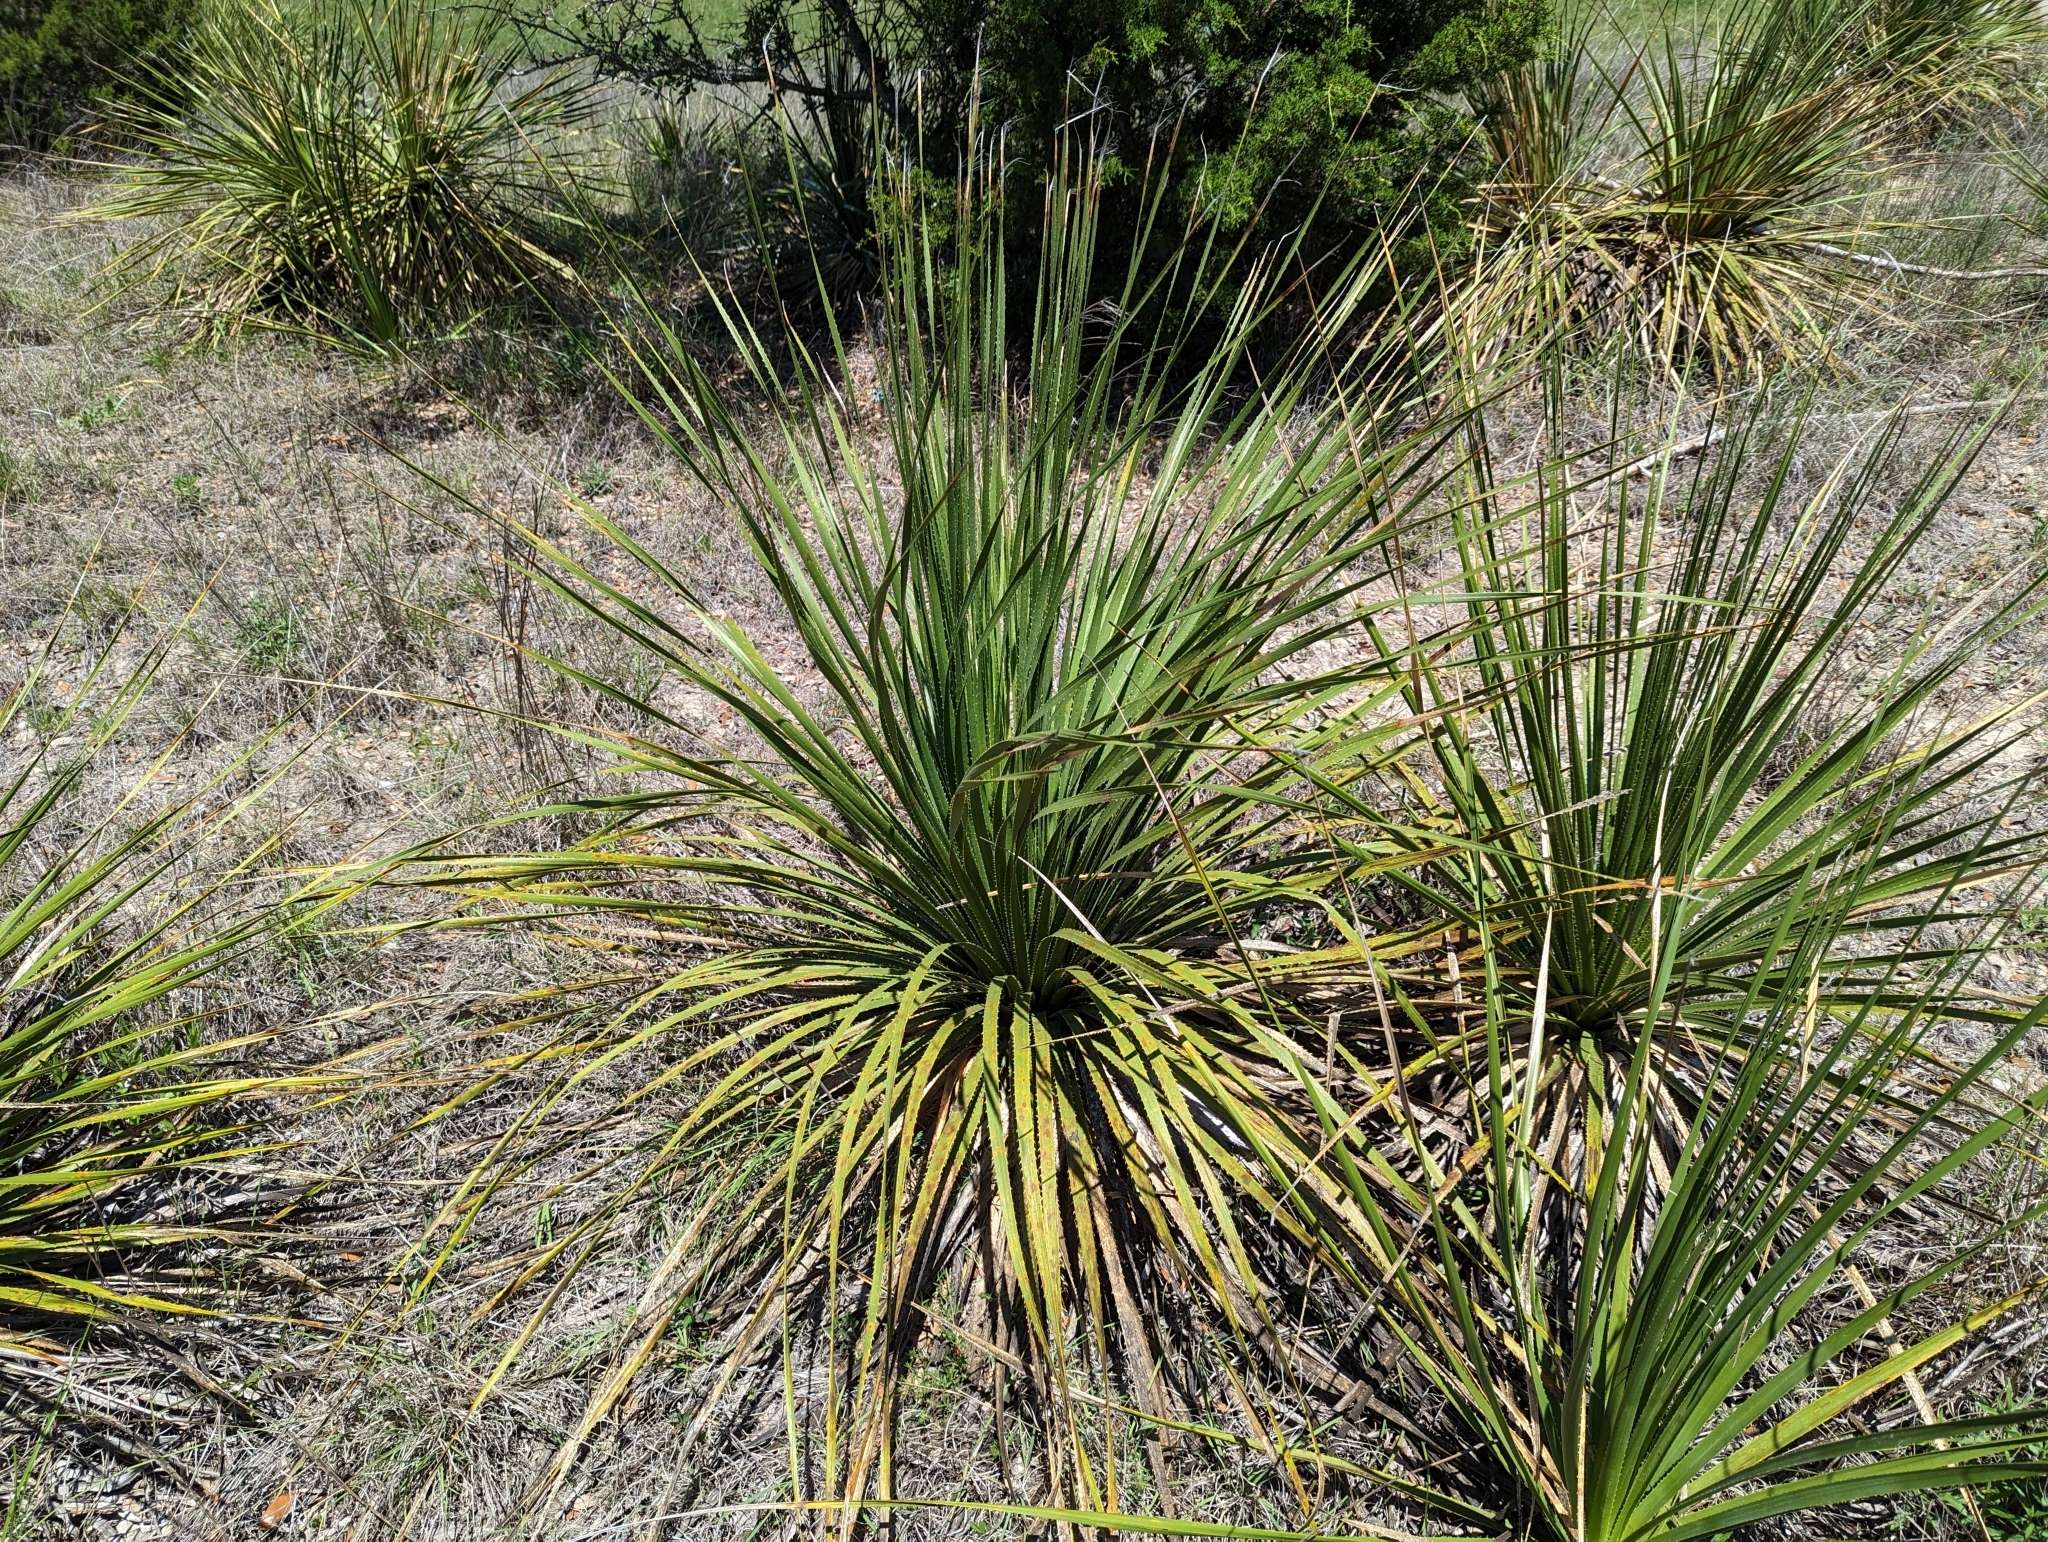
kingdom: Plantae
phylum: Tracheophyta
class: Liliopsida
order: Asparagales
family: Asparagaceae
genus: Dasylirion
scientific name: Dasylirion texanum
